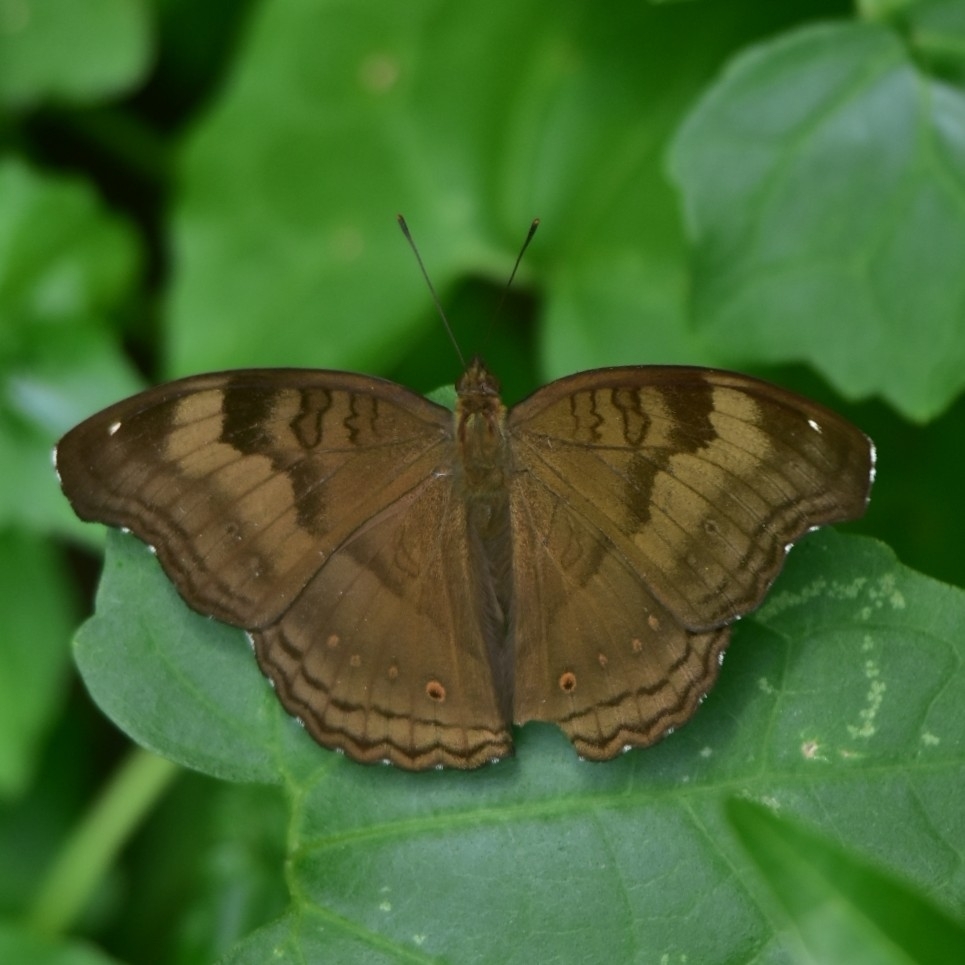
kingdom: Animalia
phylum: Arthropoda
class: Insecta
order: Lepidoptera
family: Nymphalidae
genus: Junonia
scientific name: Junonia iphita
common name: Chocolate pansy
